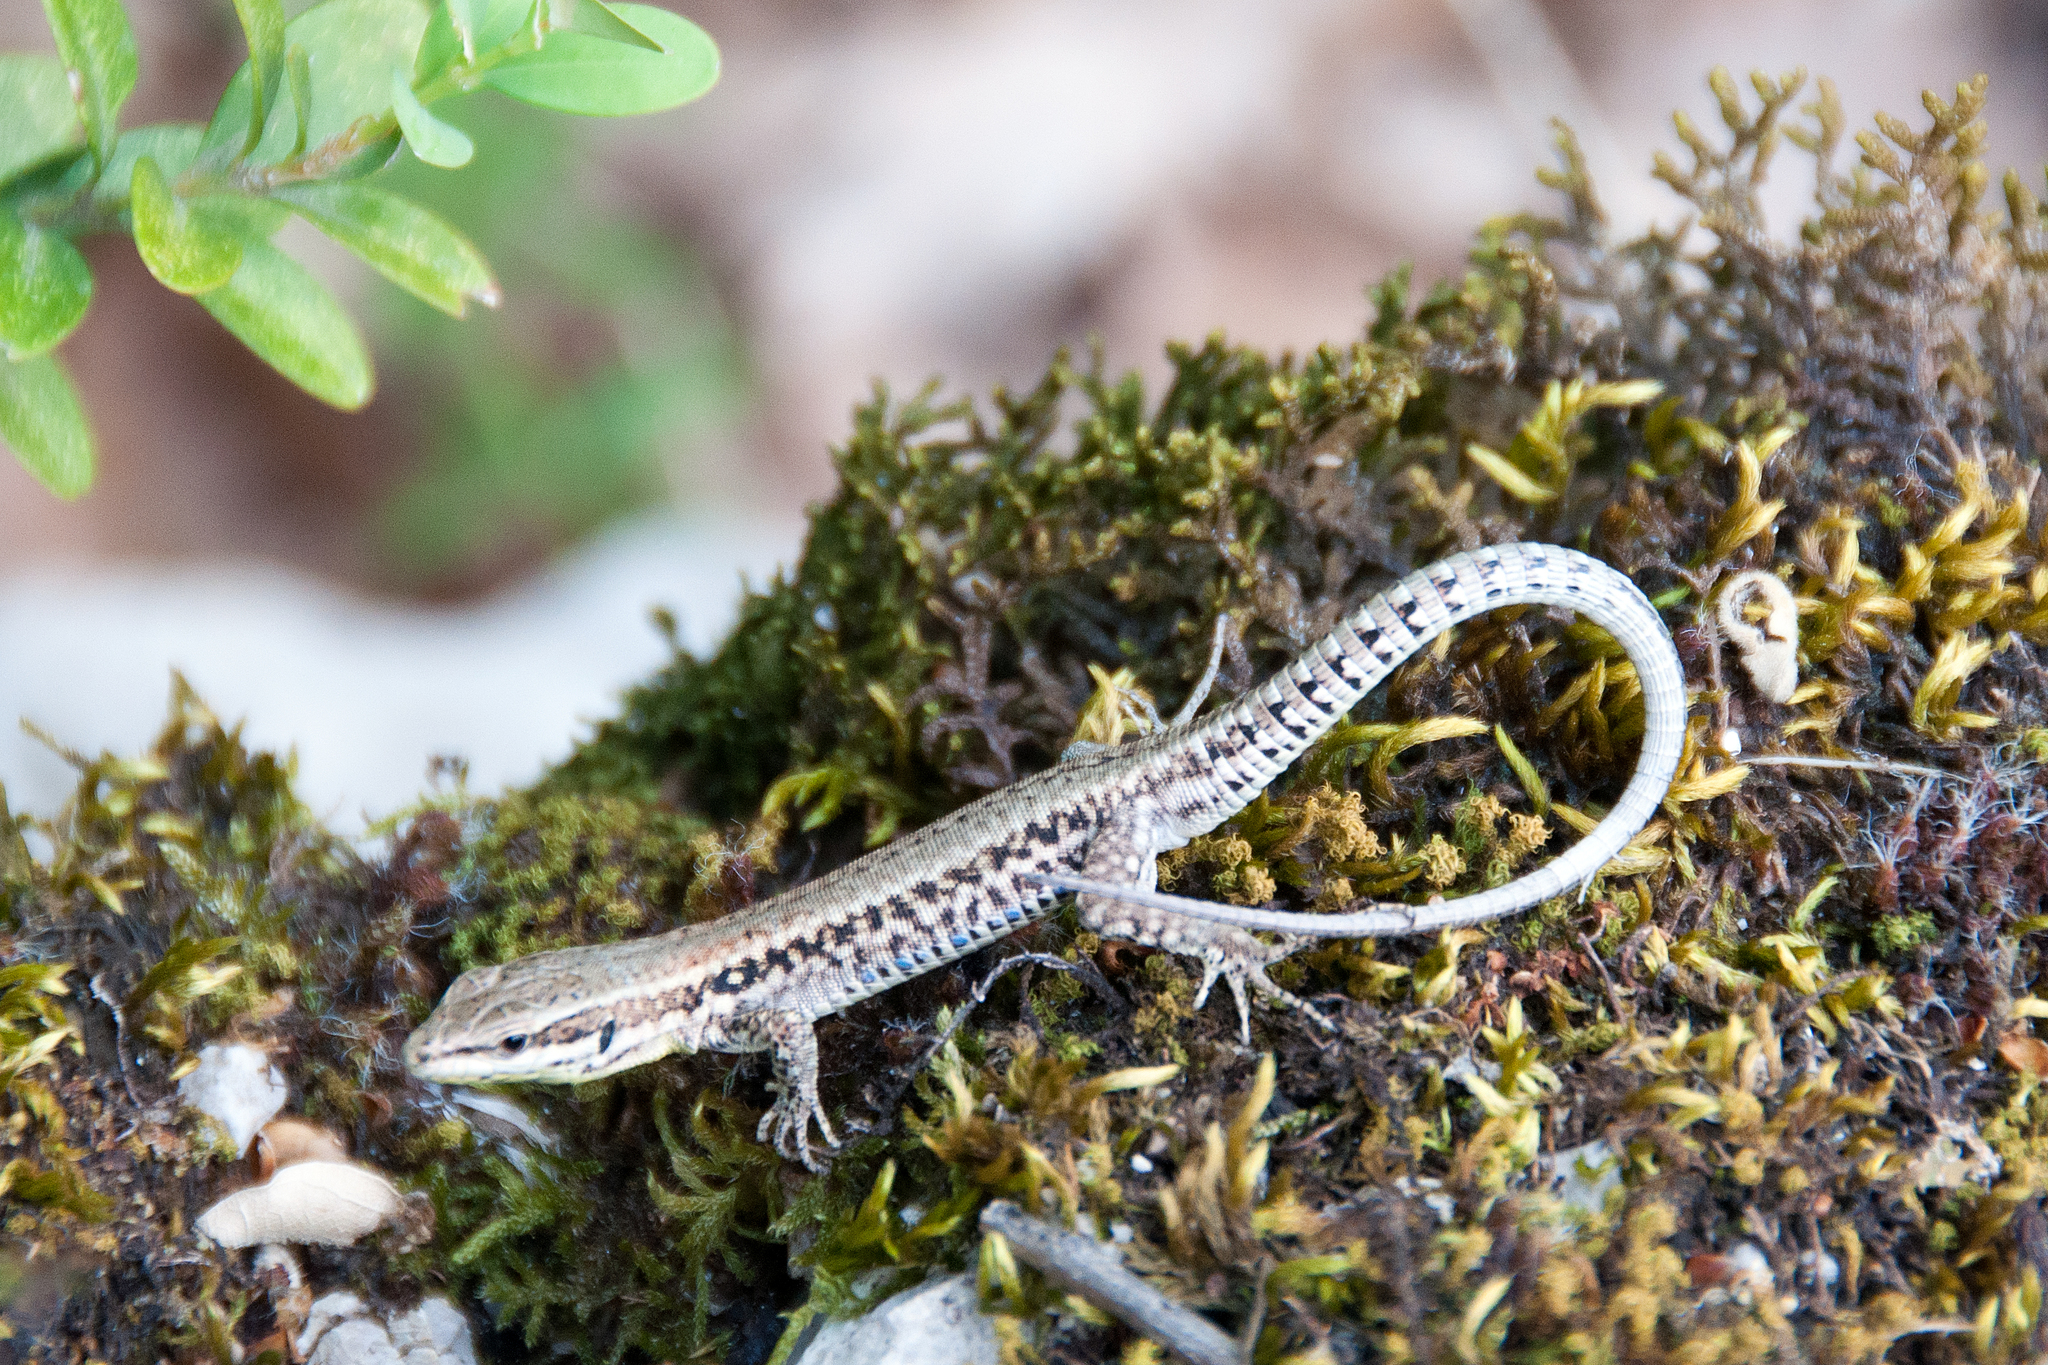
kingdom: Animalia
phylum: Chordata
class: Squamata
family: Lacertidae
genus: Podarcis
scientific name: Podarcis muralis
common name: Common wall lizard
